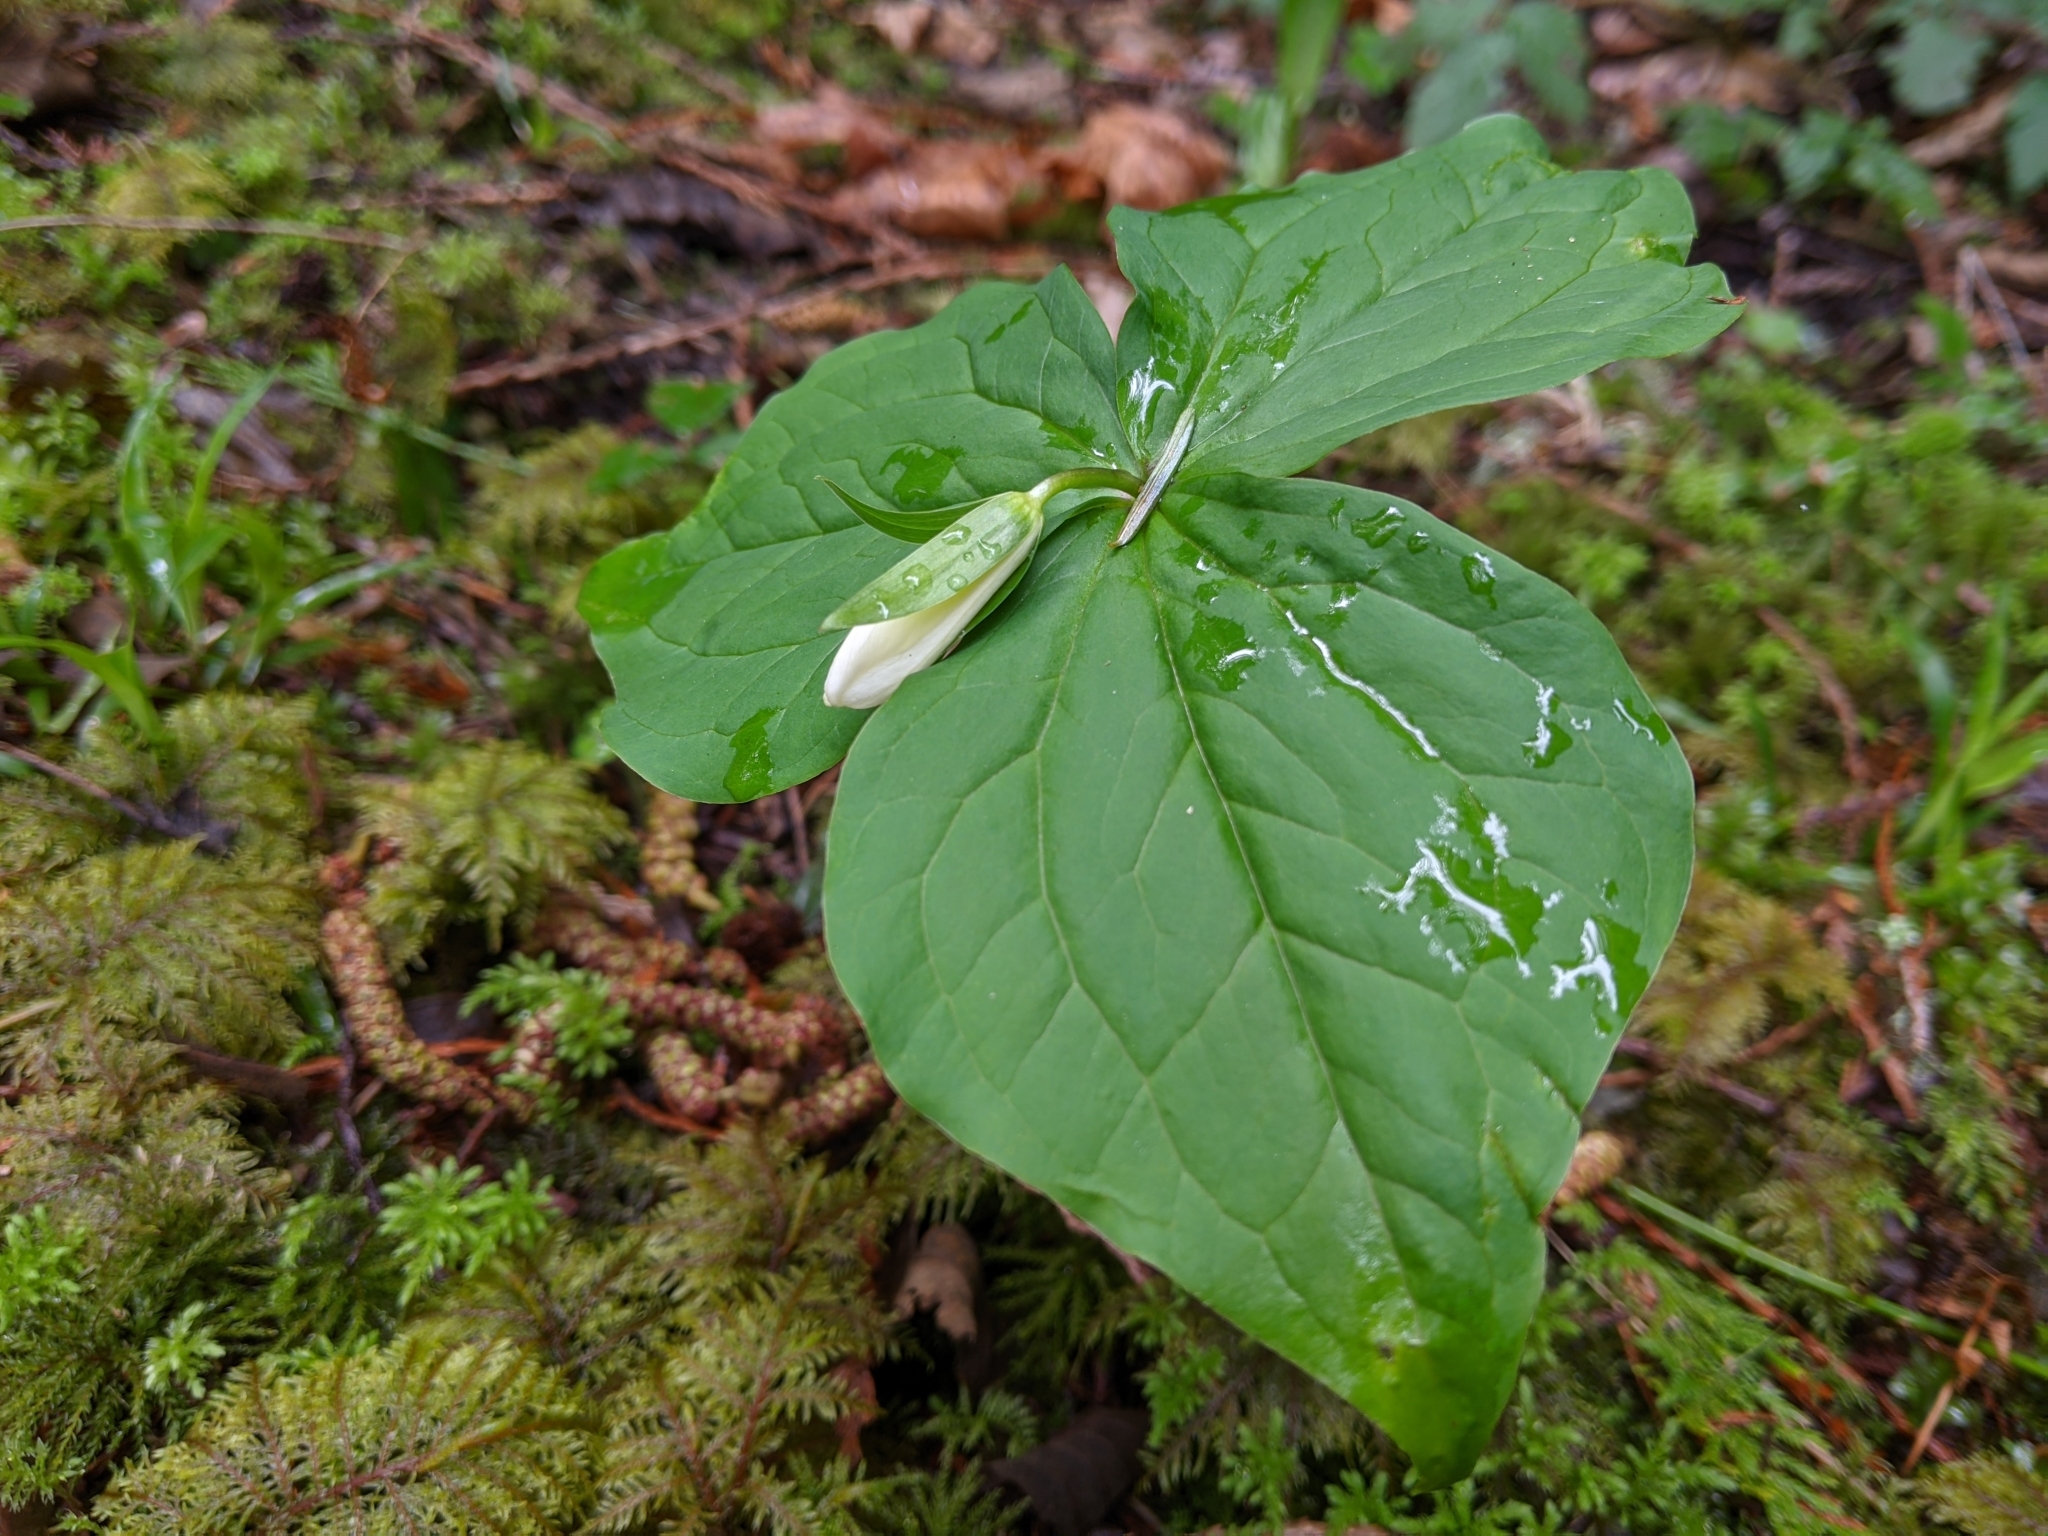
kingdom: Plantae
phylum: Tracheophyta
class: Liliopsida
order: Liliales
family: Melanthiaceae
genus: Trillium
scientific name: Trillium ovatum
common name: Pacific trillium
